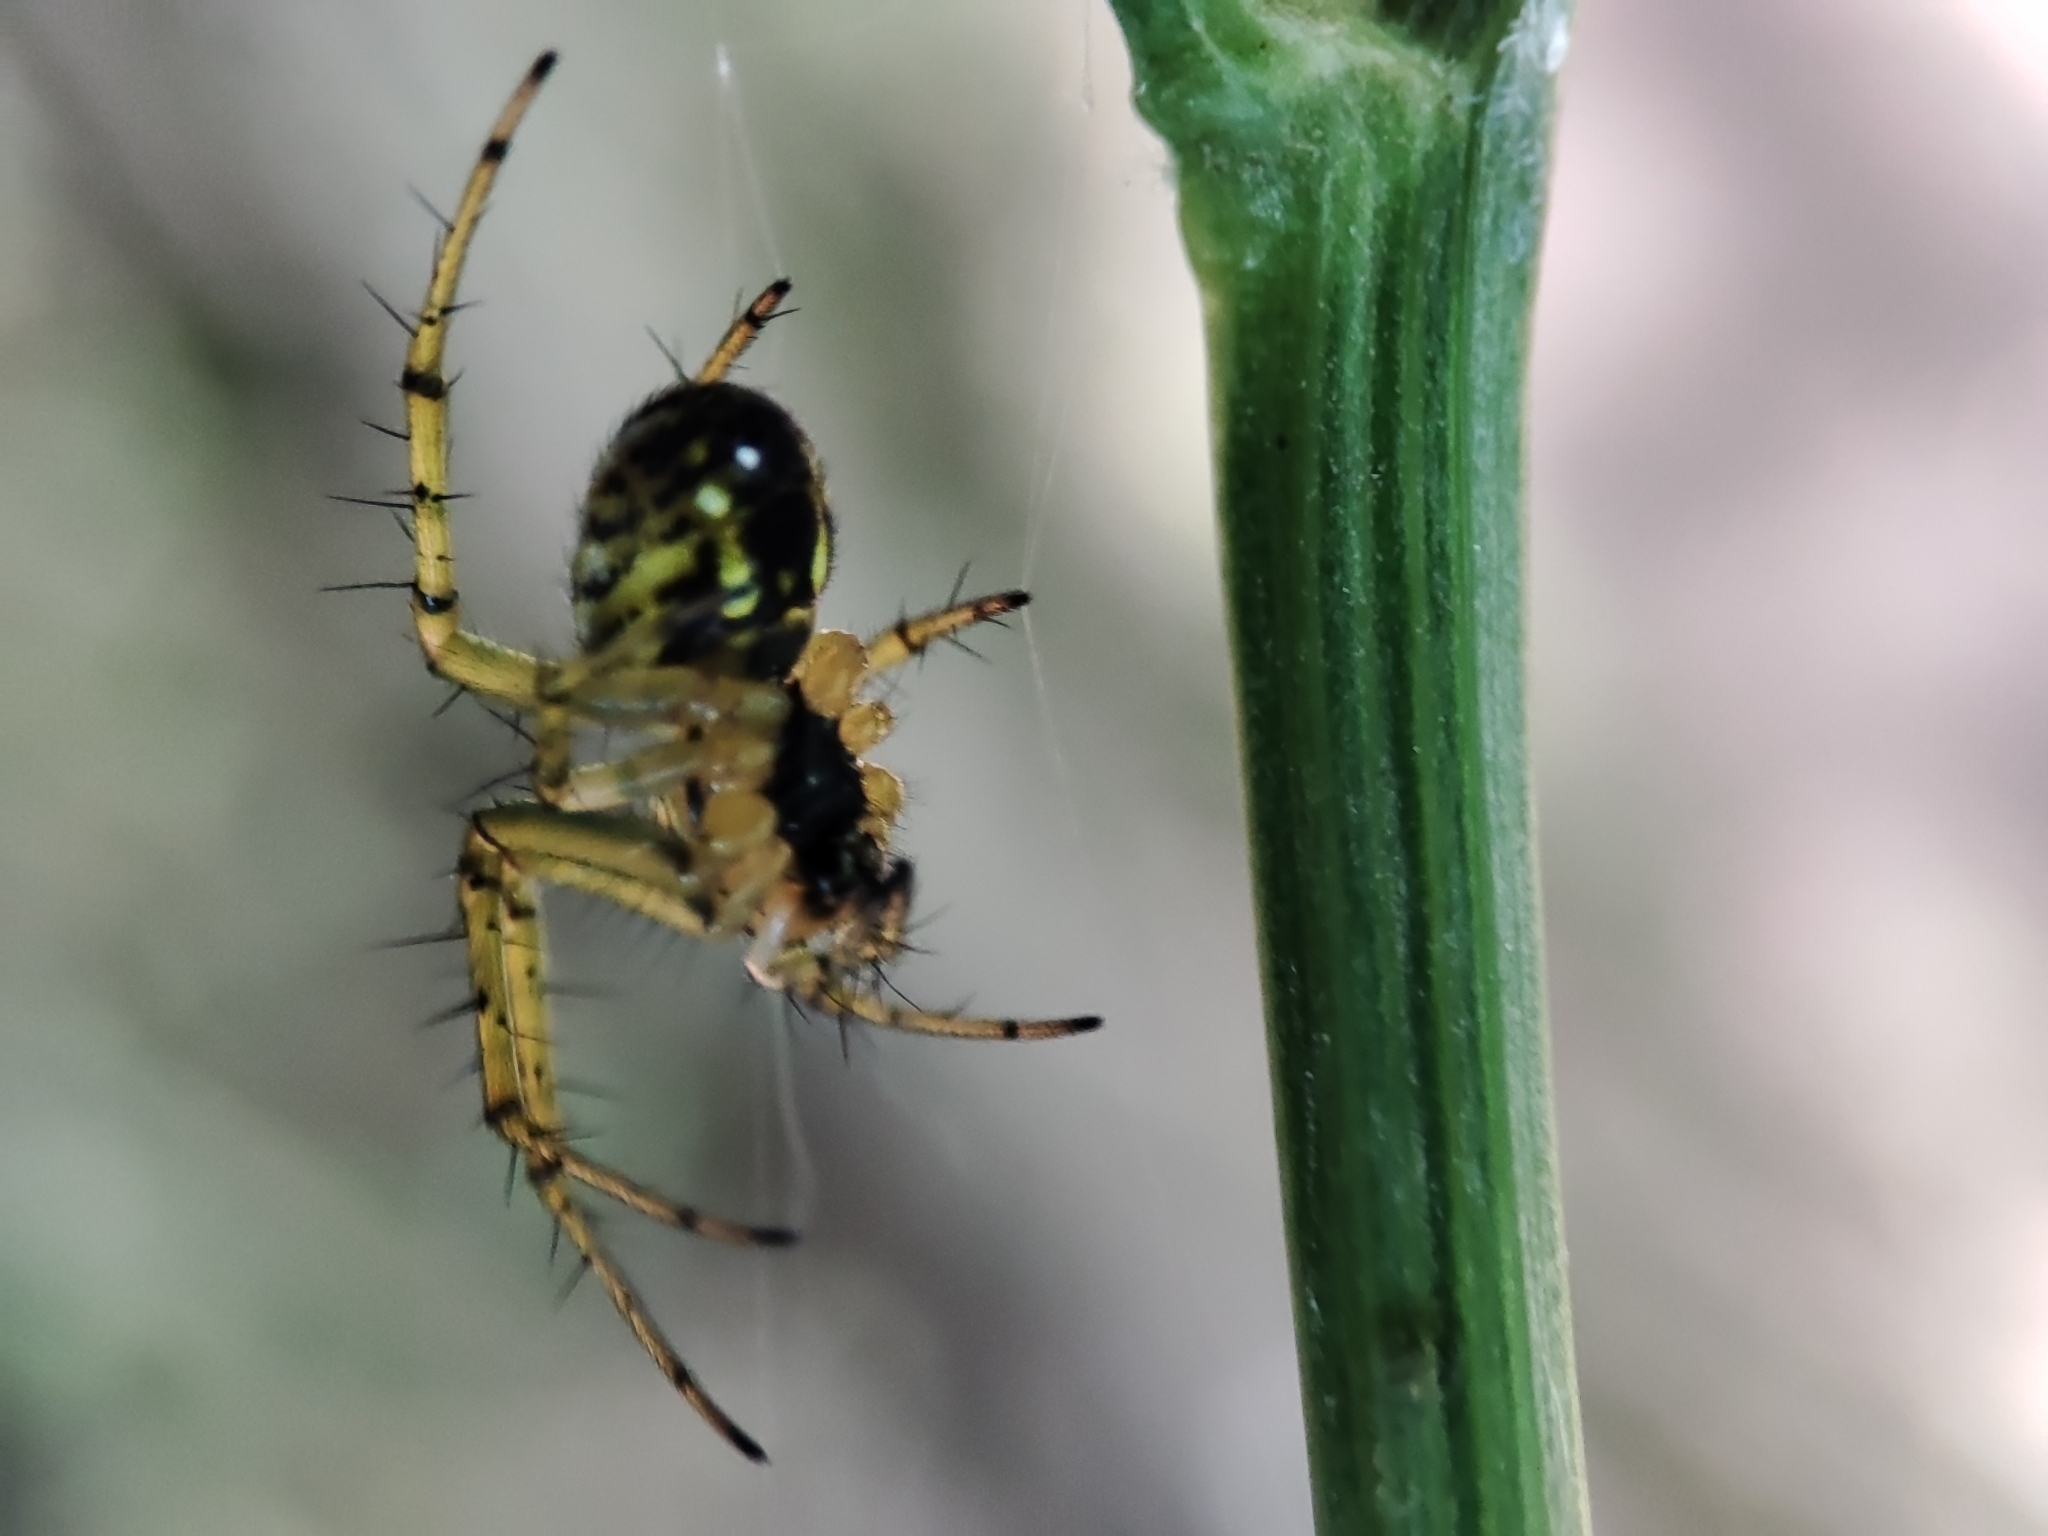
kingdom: Animalia
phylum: Arthropoda
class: Arachnida
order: Araneae
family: Araneidae
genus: Mangora
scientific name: Mangora acalypha
